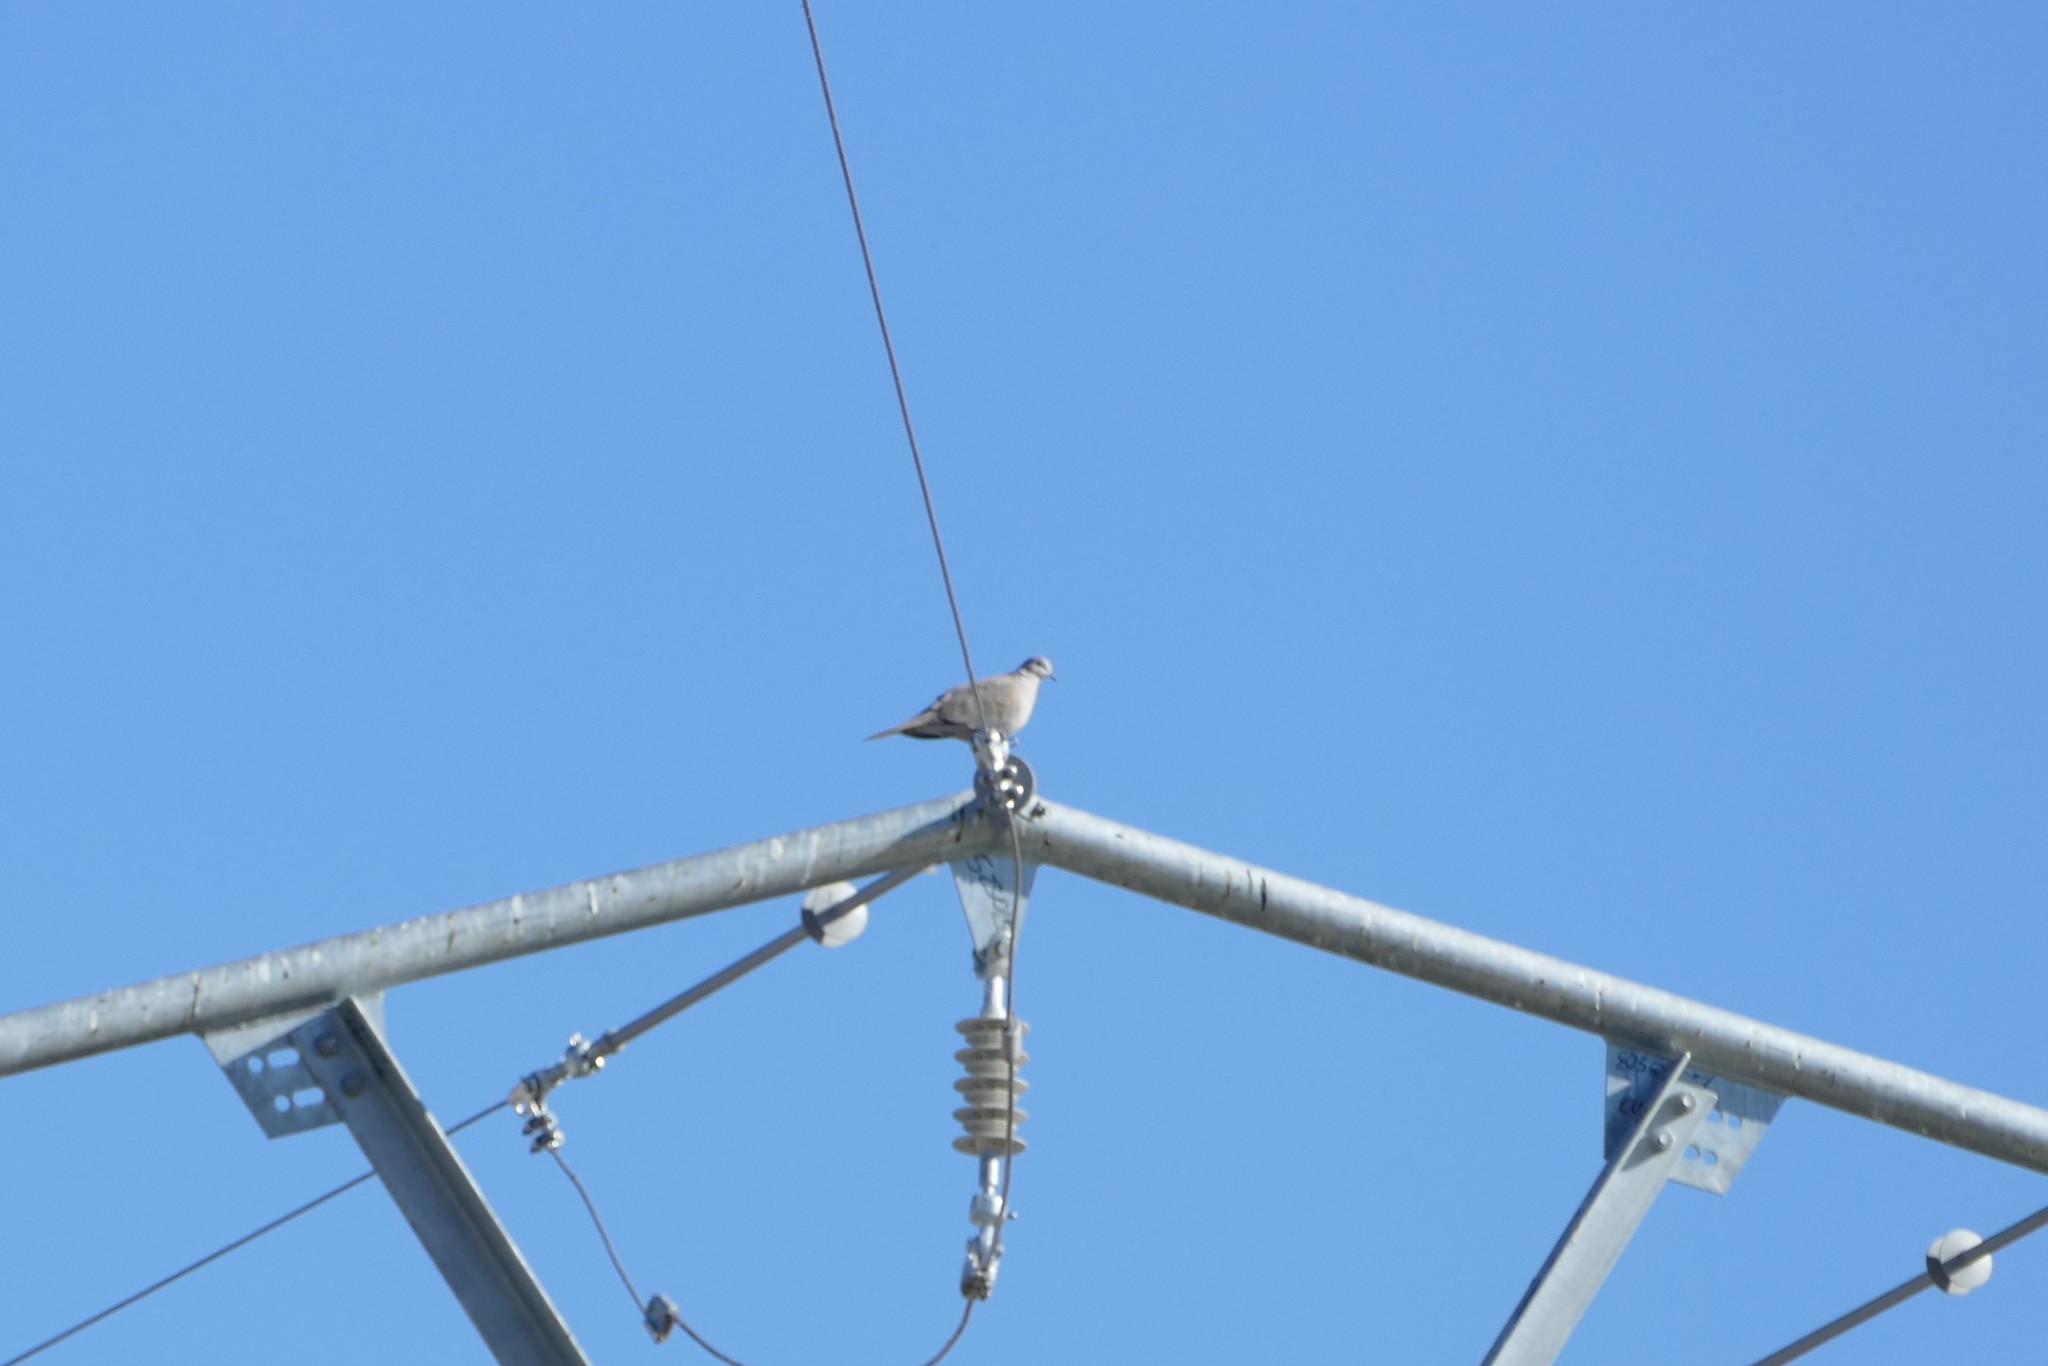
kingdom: Animalia
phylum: Chordata
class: Aves
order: Columbiformes
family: Columbidae
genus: Streptopelia
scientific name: Streptopelia decaocto
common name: Eurasian collared dove
